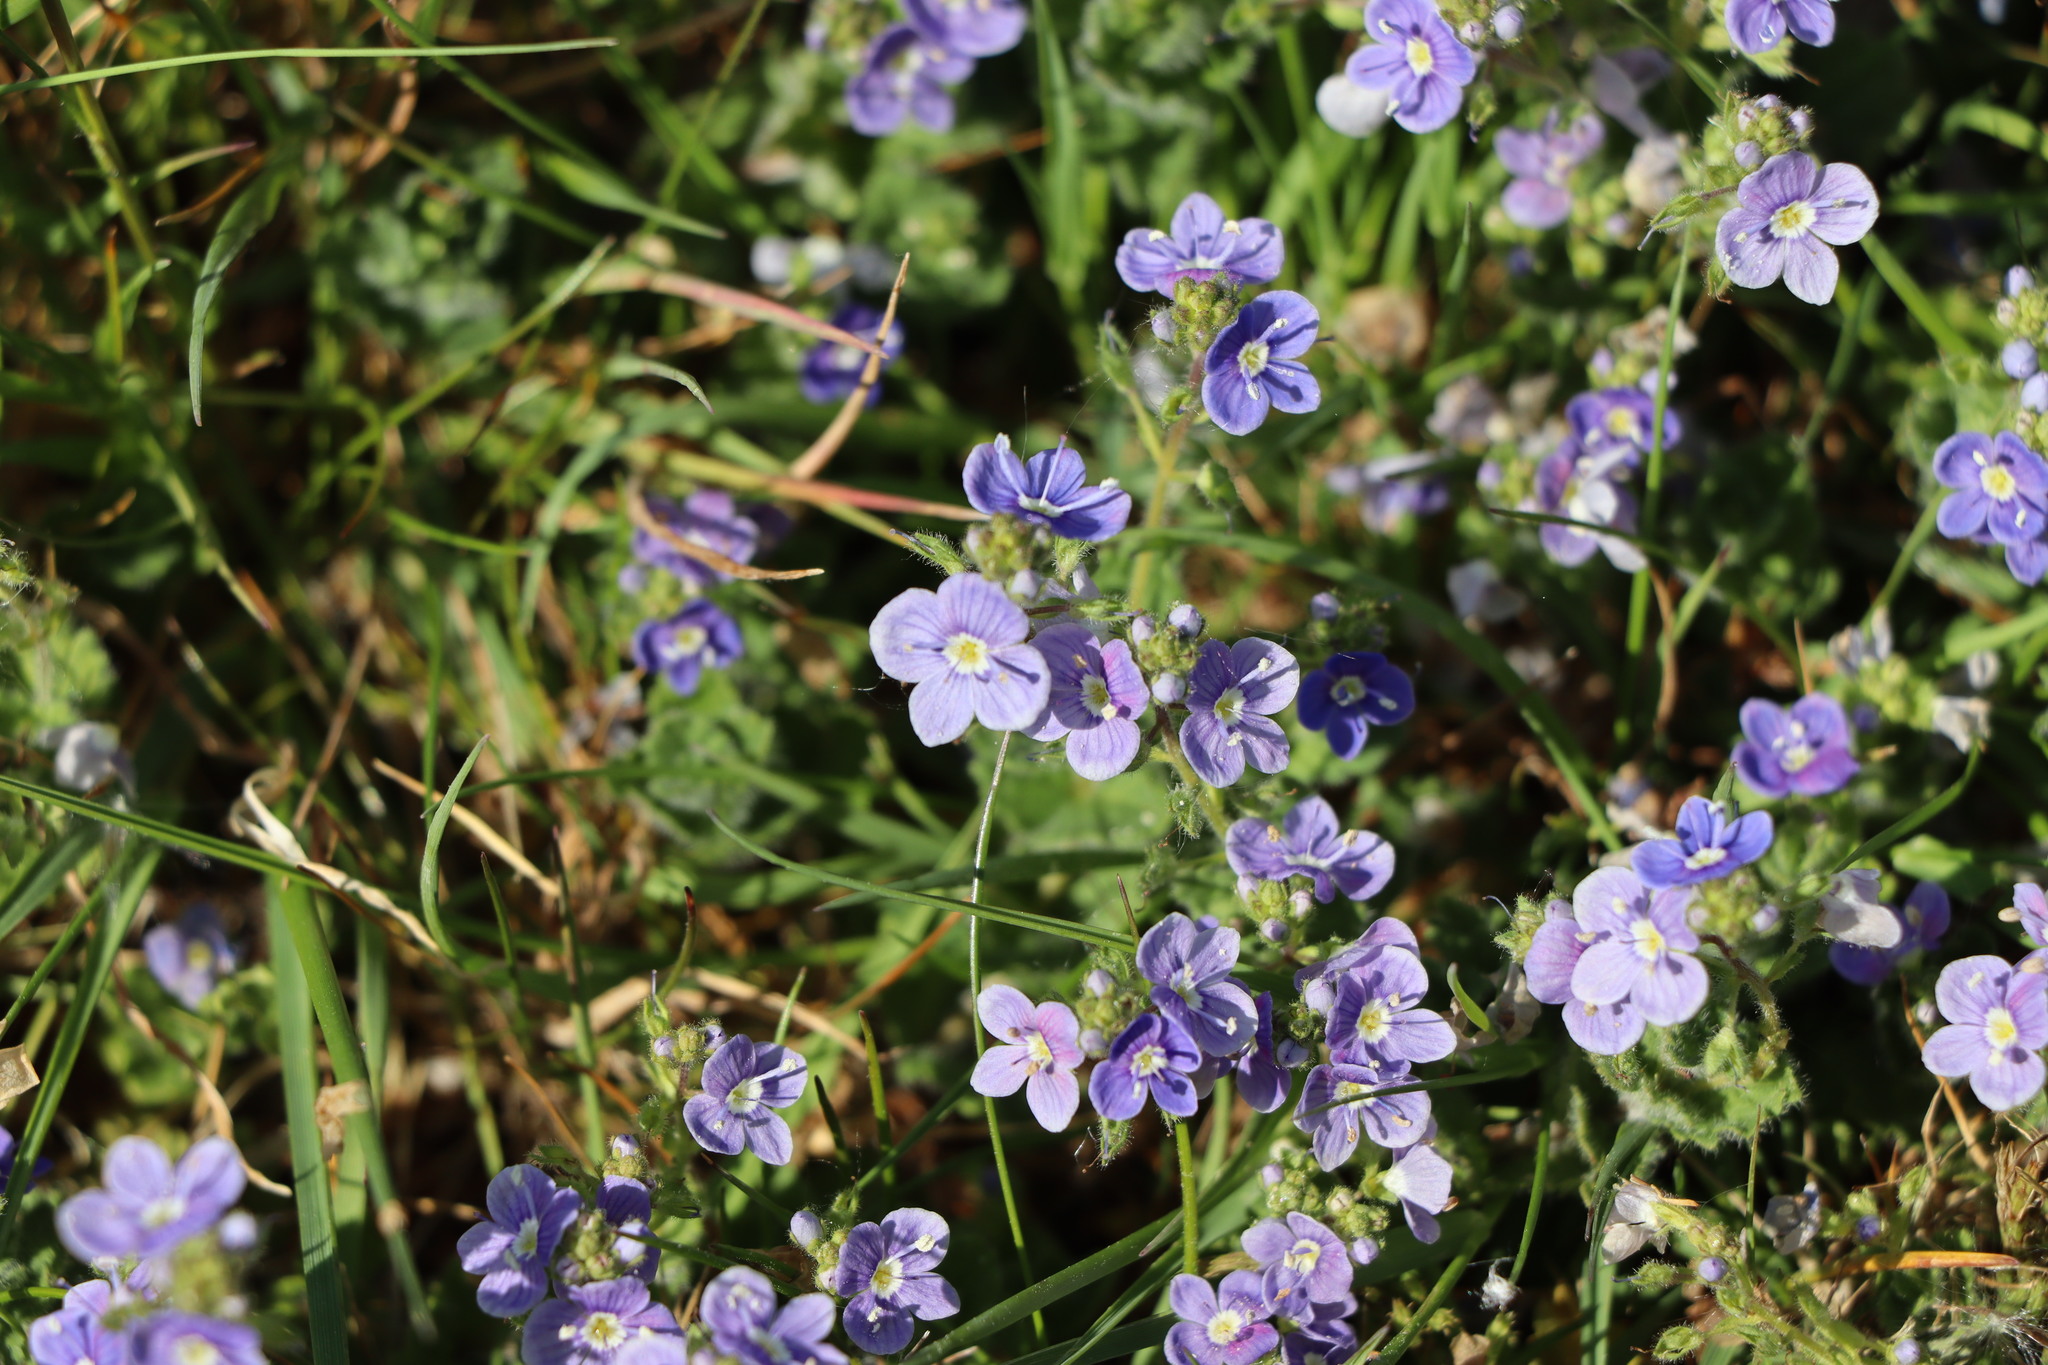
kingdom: Plantae
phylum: Tracheophyta
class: Magnoliopsida
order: Lamiales
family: Plantaginaceae
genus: Veronica
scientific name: Veronica chamaedrys
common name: Germander speedwell
